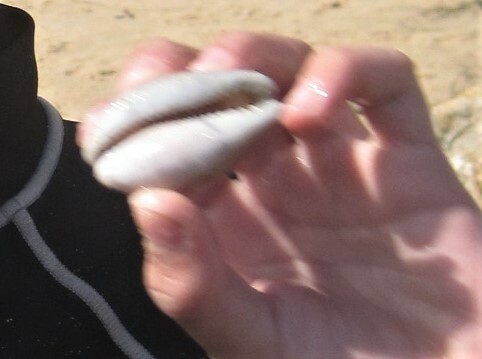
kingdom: Animalia
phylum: Mollusca
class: Gastropoda
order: Littorinimorpha
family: Cypraeidae
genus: Neobernaya
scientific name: Neobernaya spadicea
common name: Chestnut cowrie
